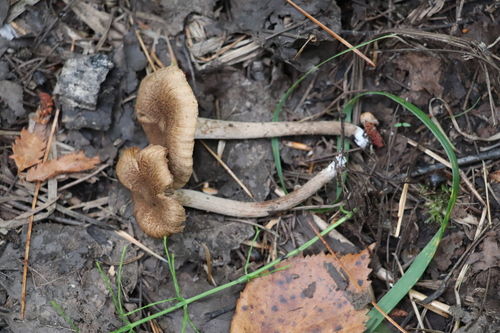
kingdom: Fungi
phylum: Basidiomycota
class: Agaricomycetes
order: Agaricales
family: Inocybaceae
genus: Inocybe
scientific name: Inocybe
